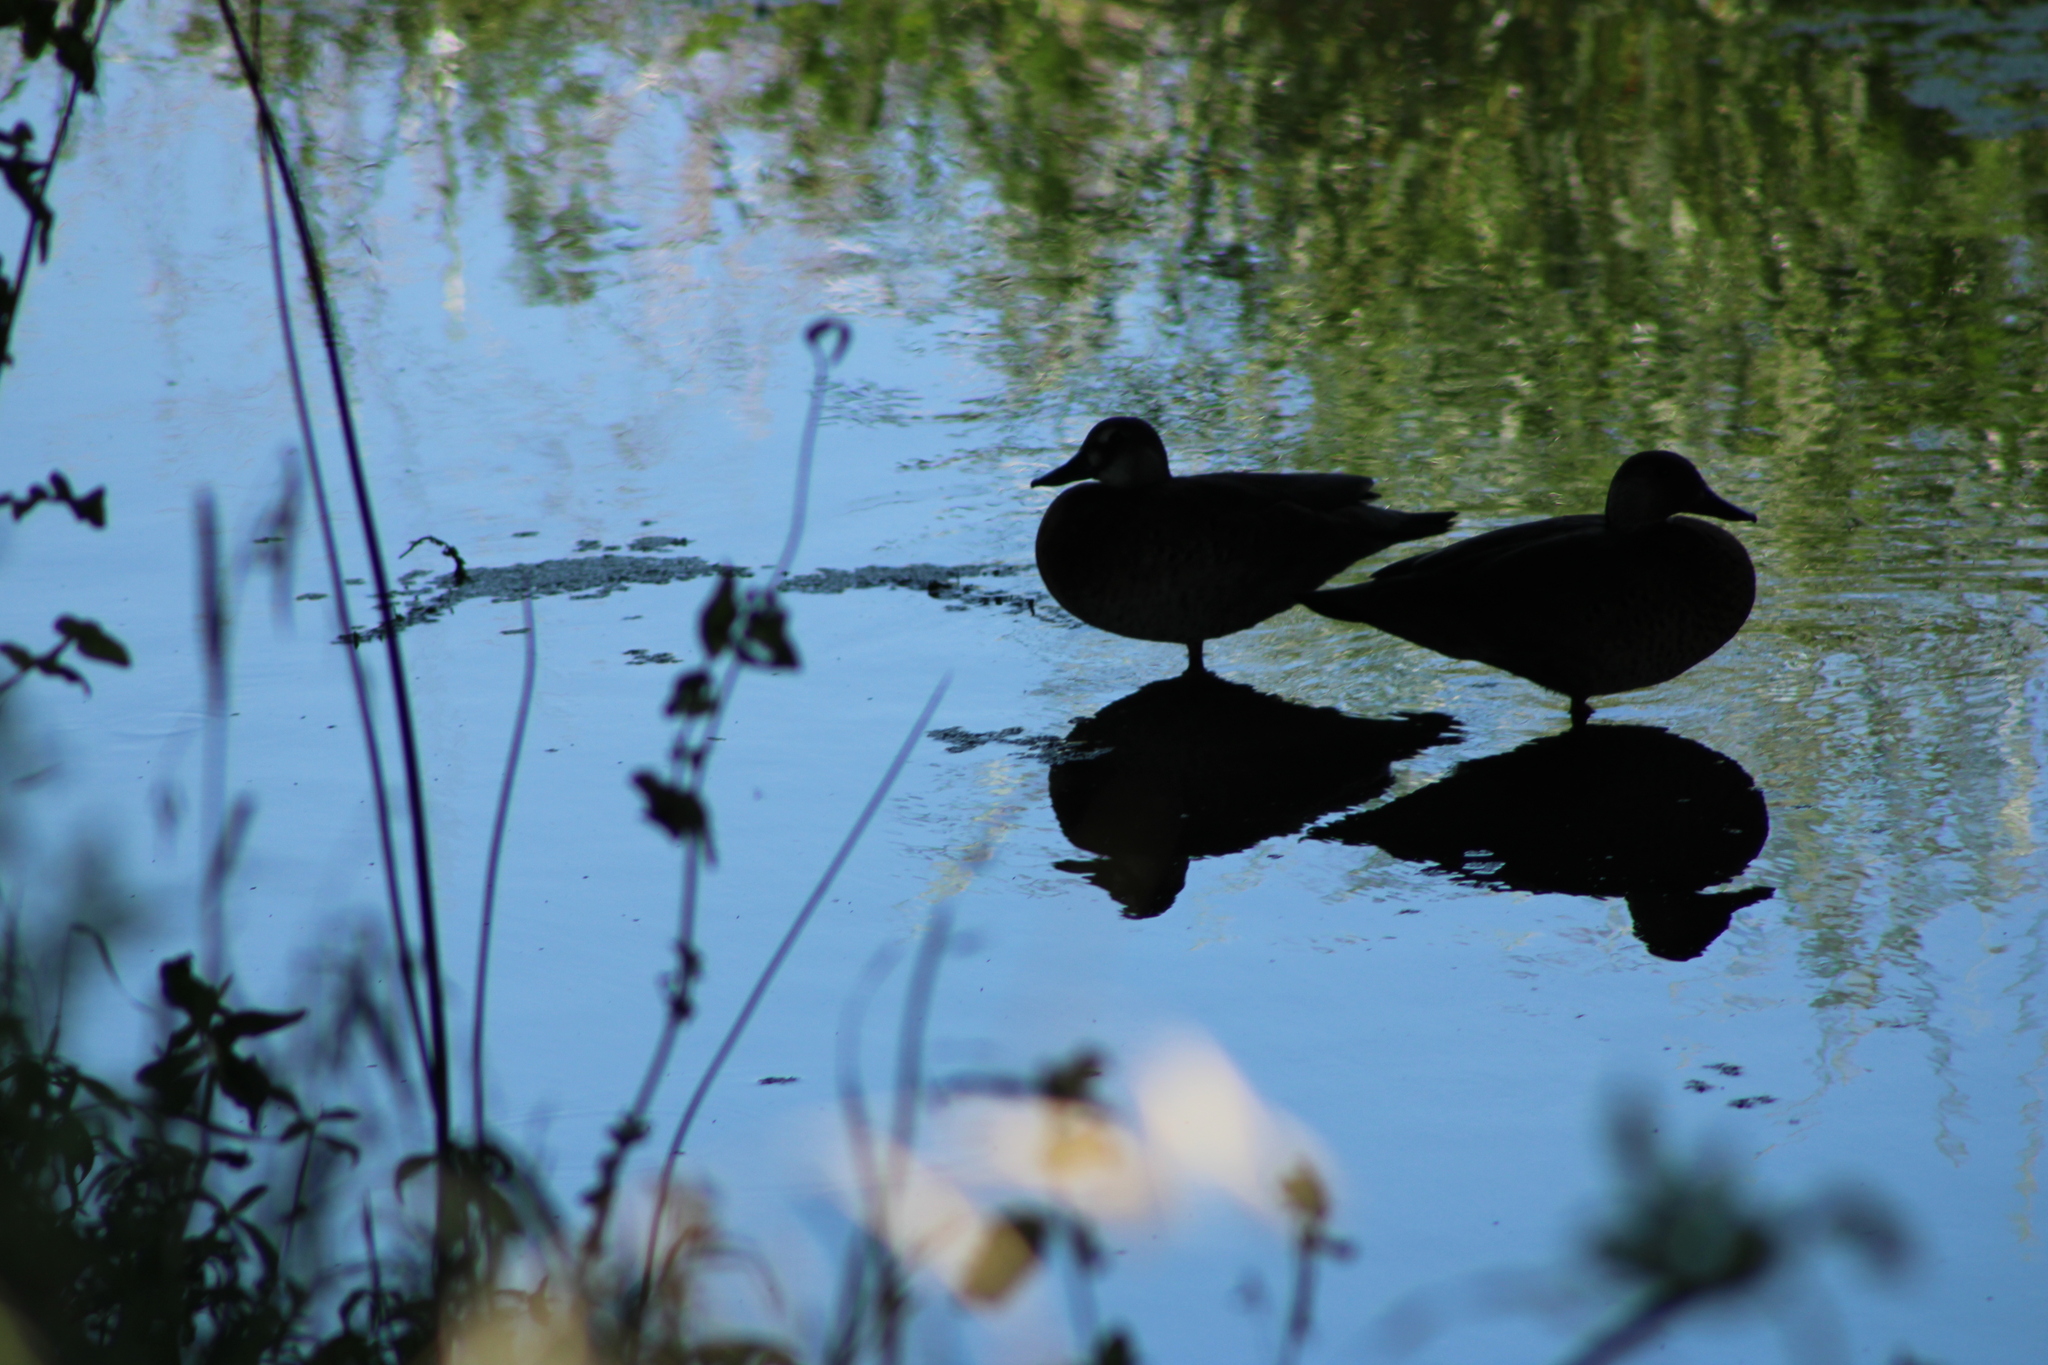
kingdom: Animalia
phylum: Chordata
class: Aves
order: Anseriformes
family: Anatidae
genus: Amazonetta
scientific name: Amazonetta brasiliensis
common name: Brazilian teal
